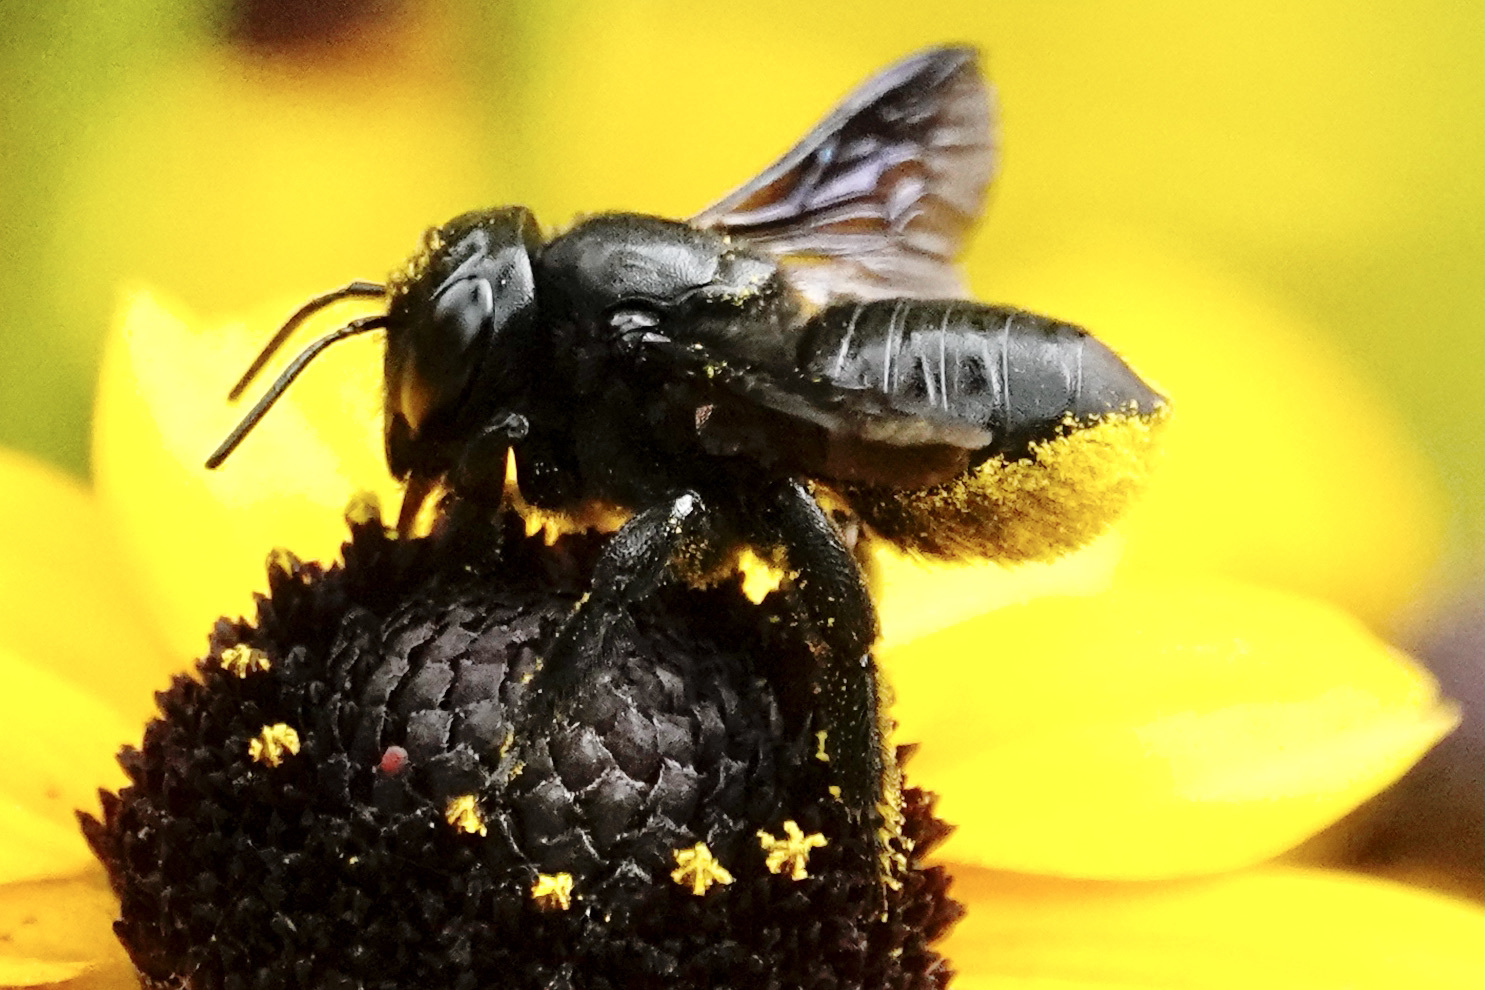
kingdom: Animalia
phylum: Arthropoda
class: Insecta
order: Hymenoptera
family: Megachilidae
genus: Megachile
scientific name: Megachile xylocopoides
